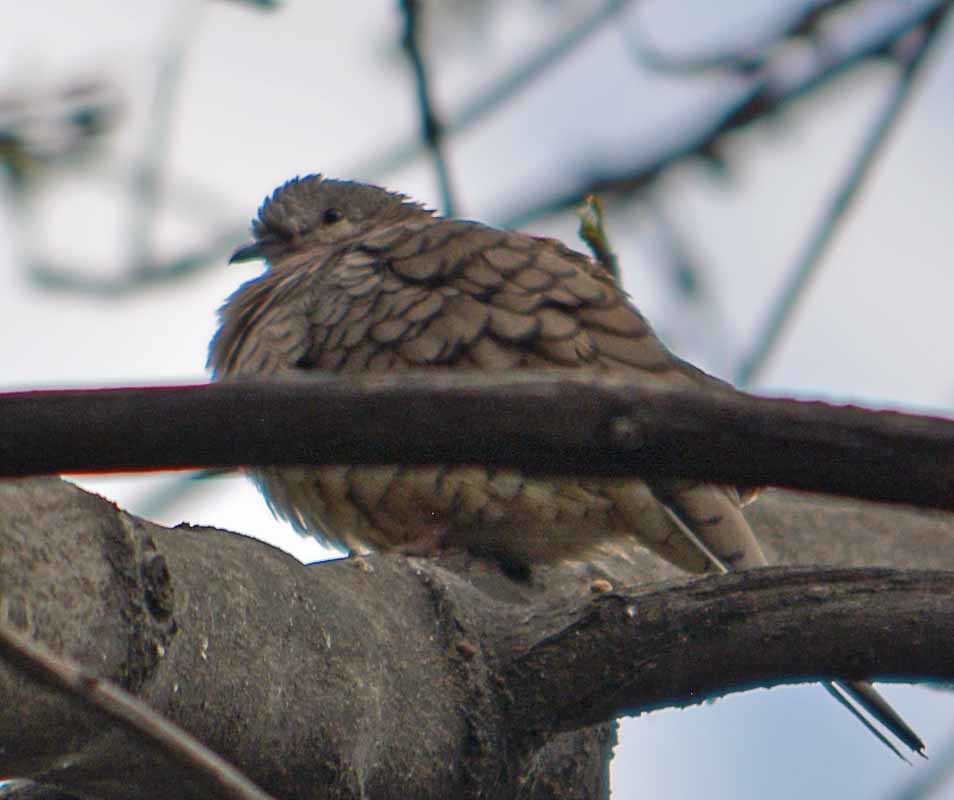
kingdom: Animalia
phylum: Chordata
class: Aves
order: Columbiformes
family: Columbidae
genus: Columbina
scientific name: Columbina inca
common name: Inca dove
